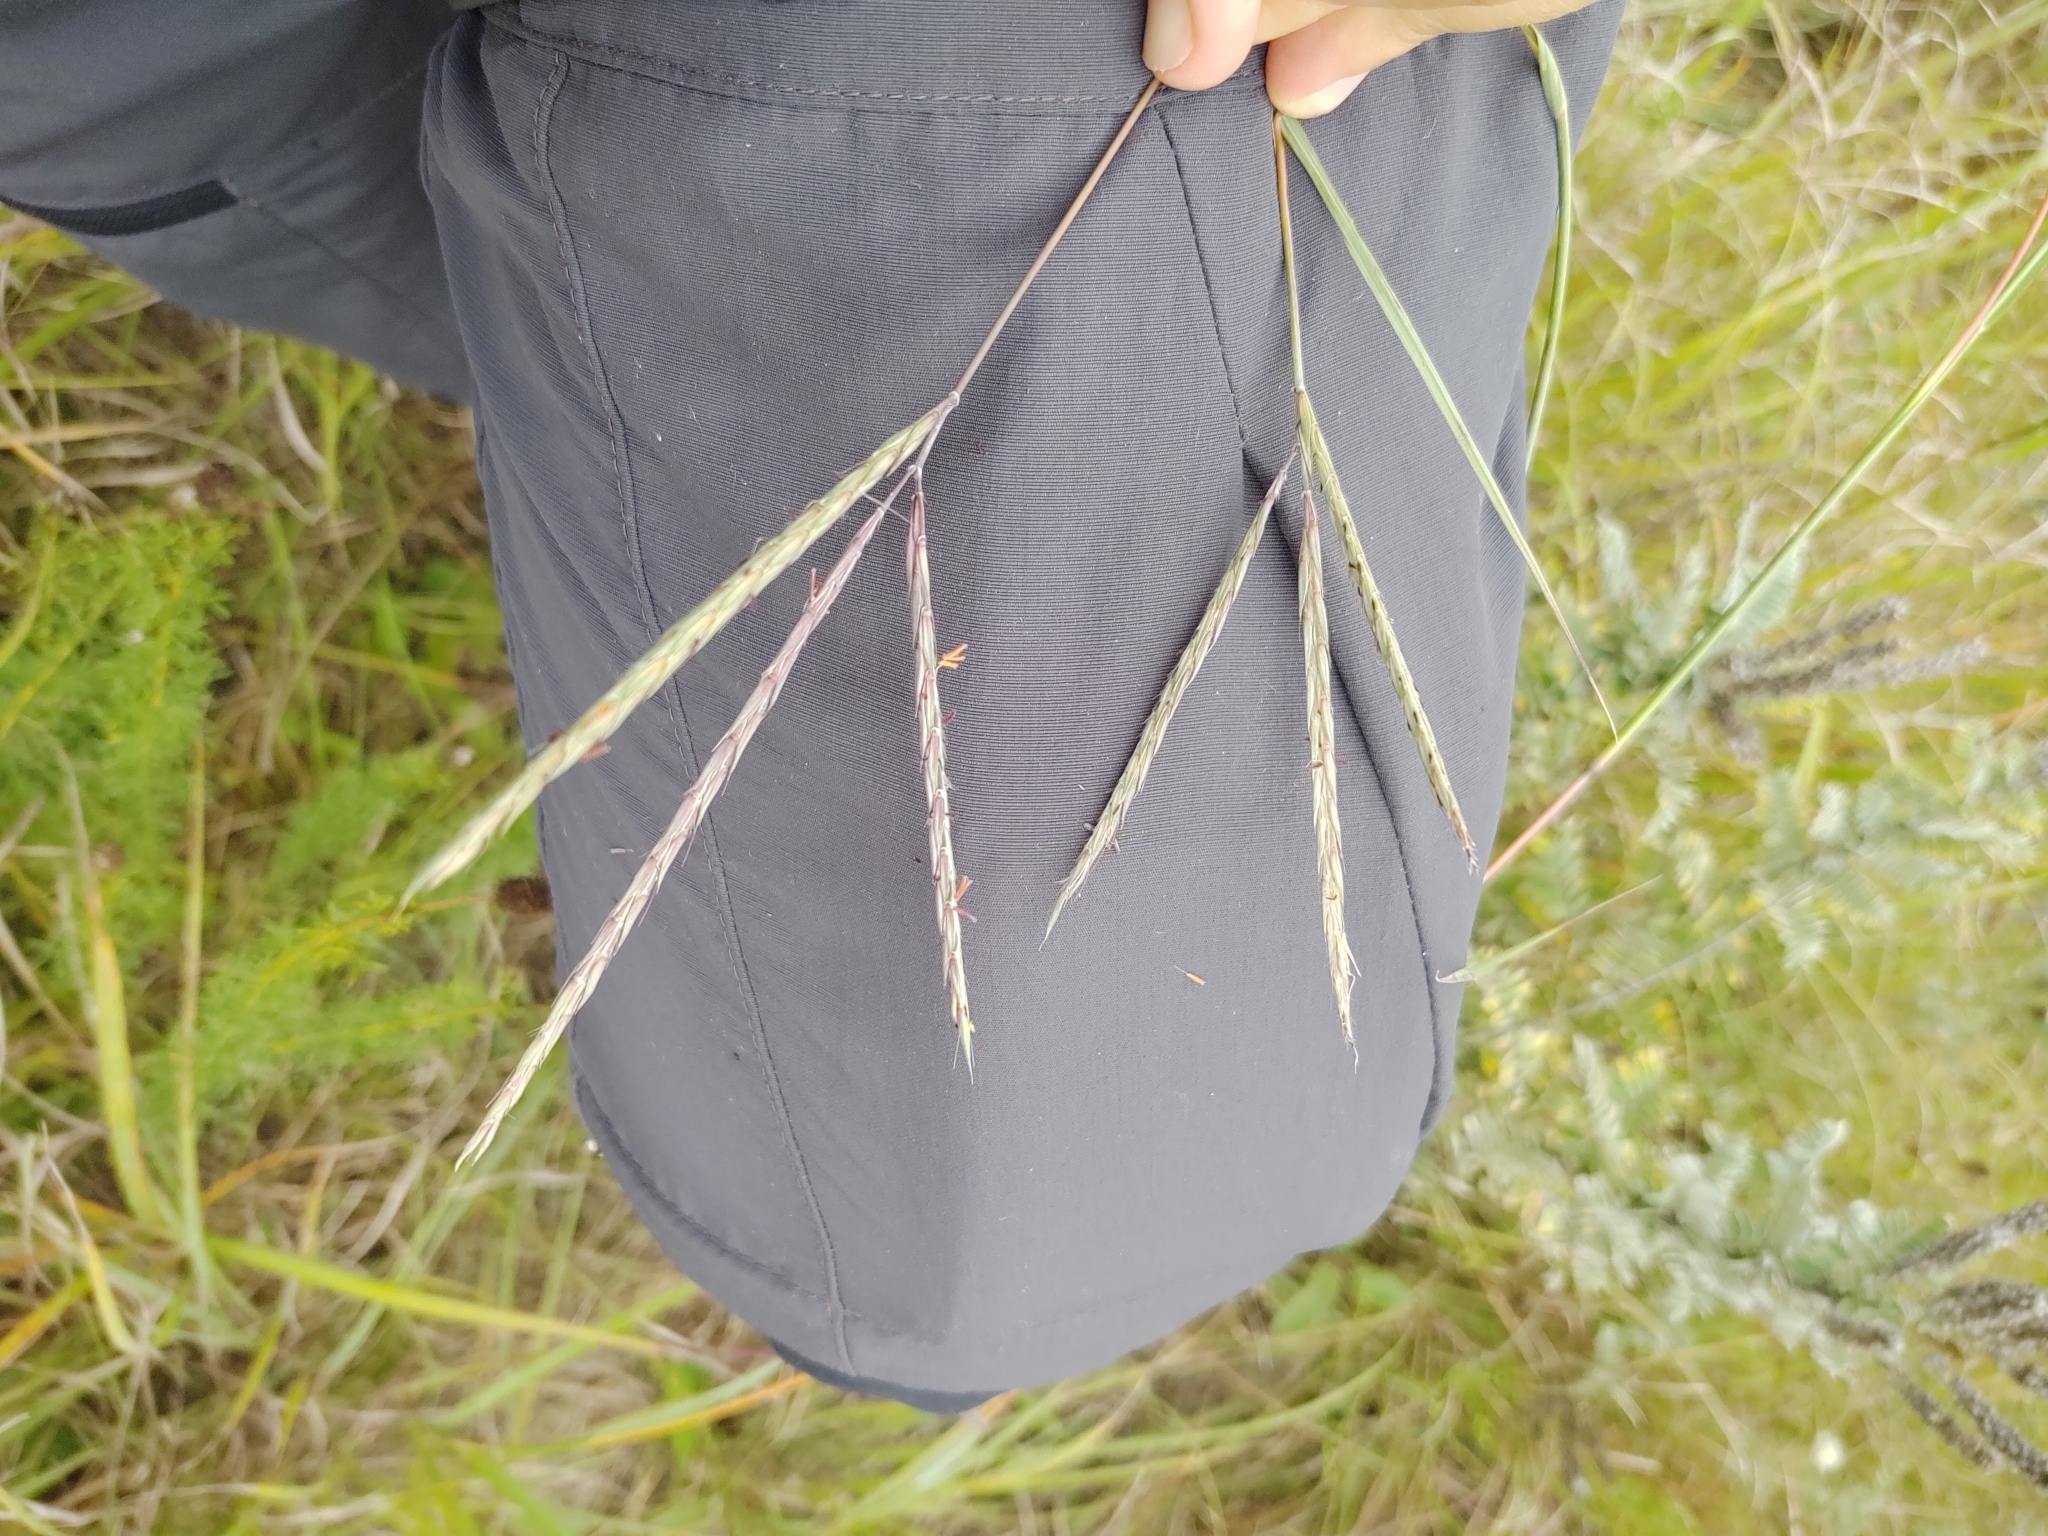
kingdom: Plantae
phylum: Tracheophyta
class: Liliopsida
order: Poales
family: Poaceae
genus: Andropogon
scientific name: Andropogon gerardi
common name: Big bluestem
